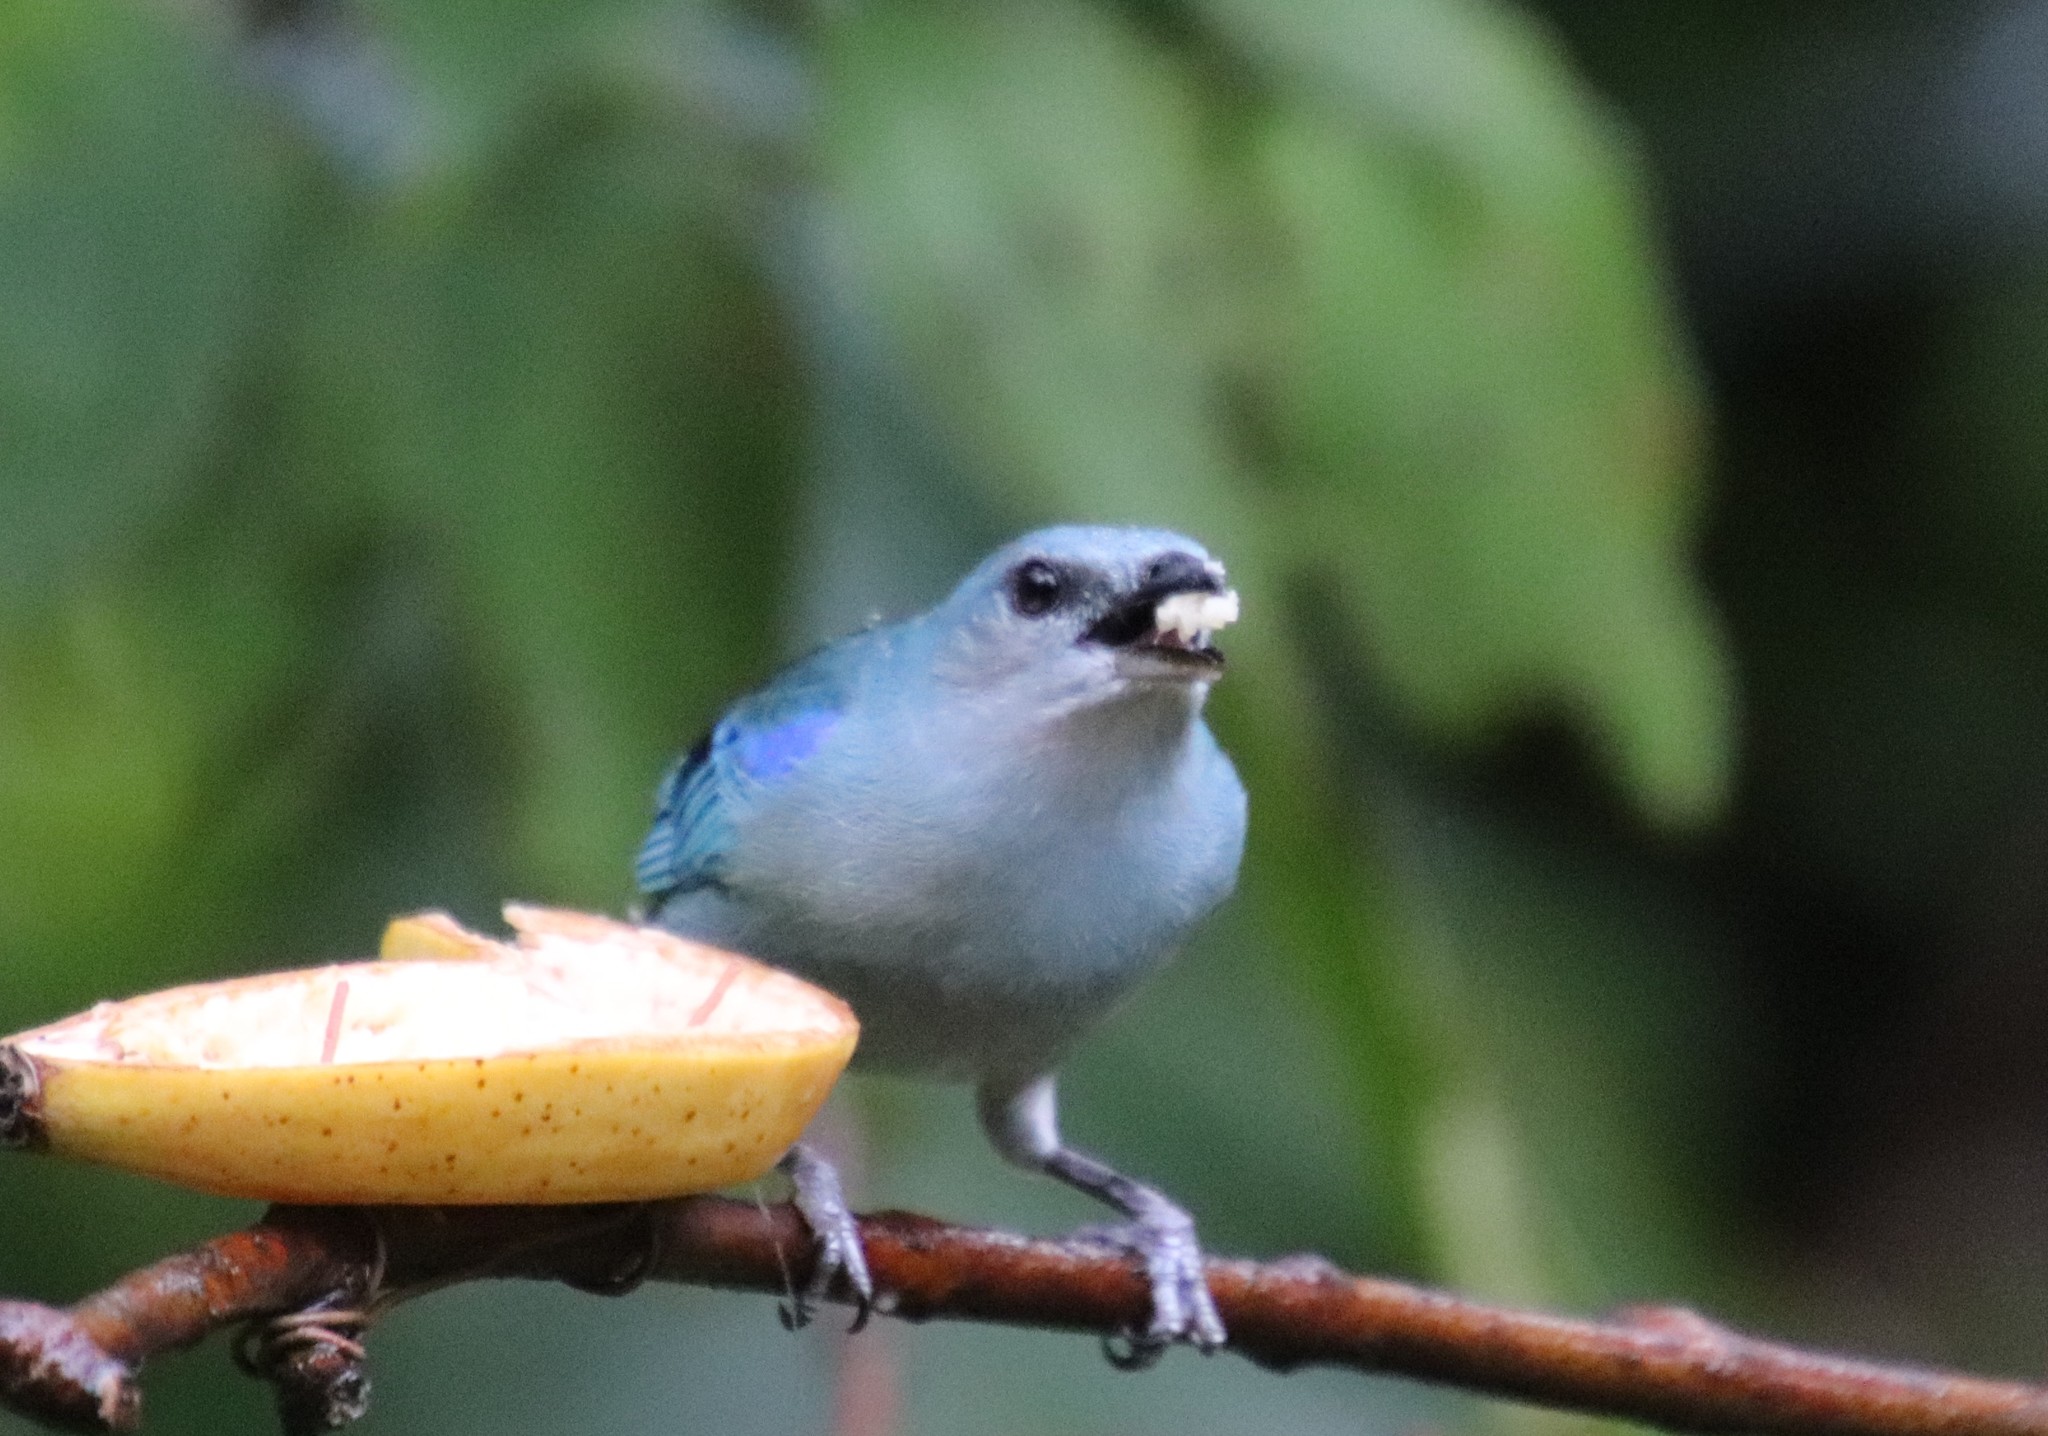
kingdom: Animalia
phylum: Chordata
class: Aves
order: Passeriformes
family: Thraupidae
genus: Thraupis
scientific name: Thraupis cyanoptera
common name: Azure-shouldered tanager
